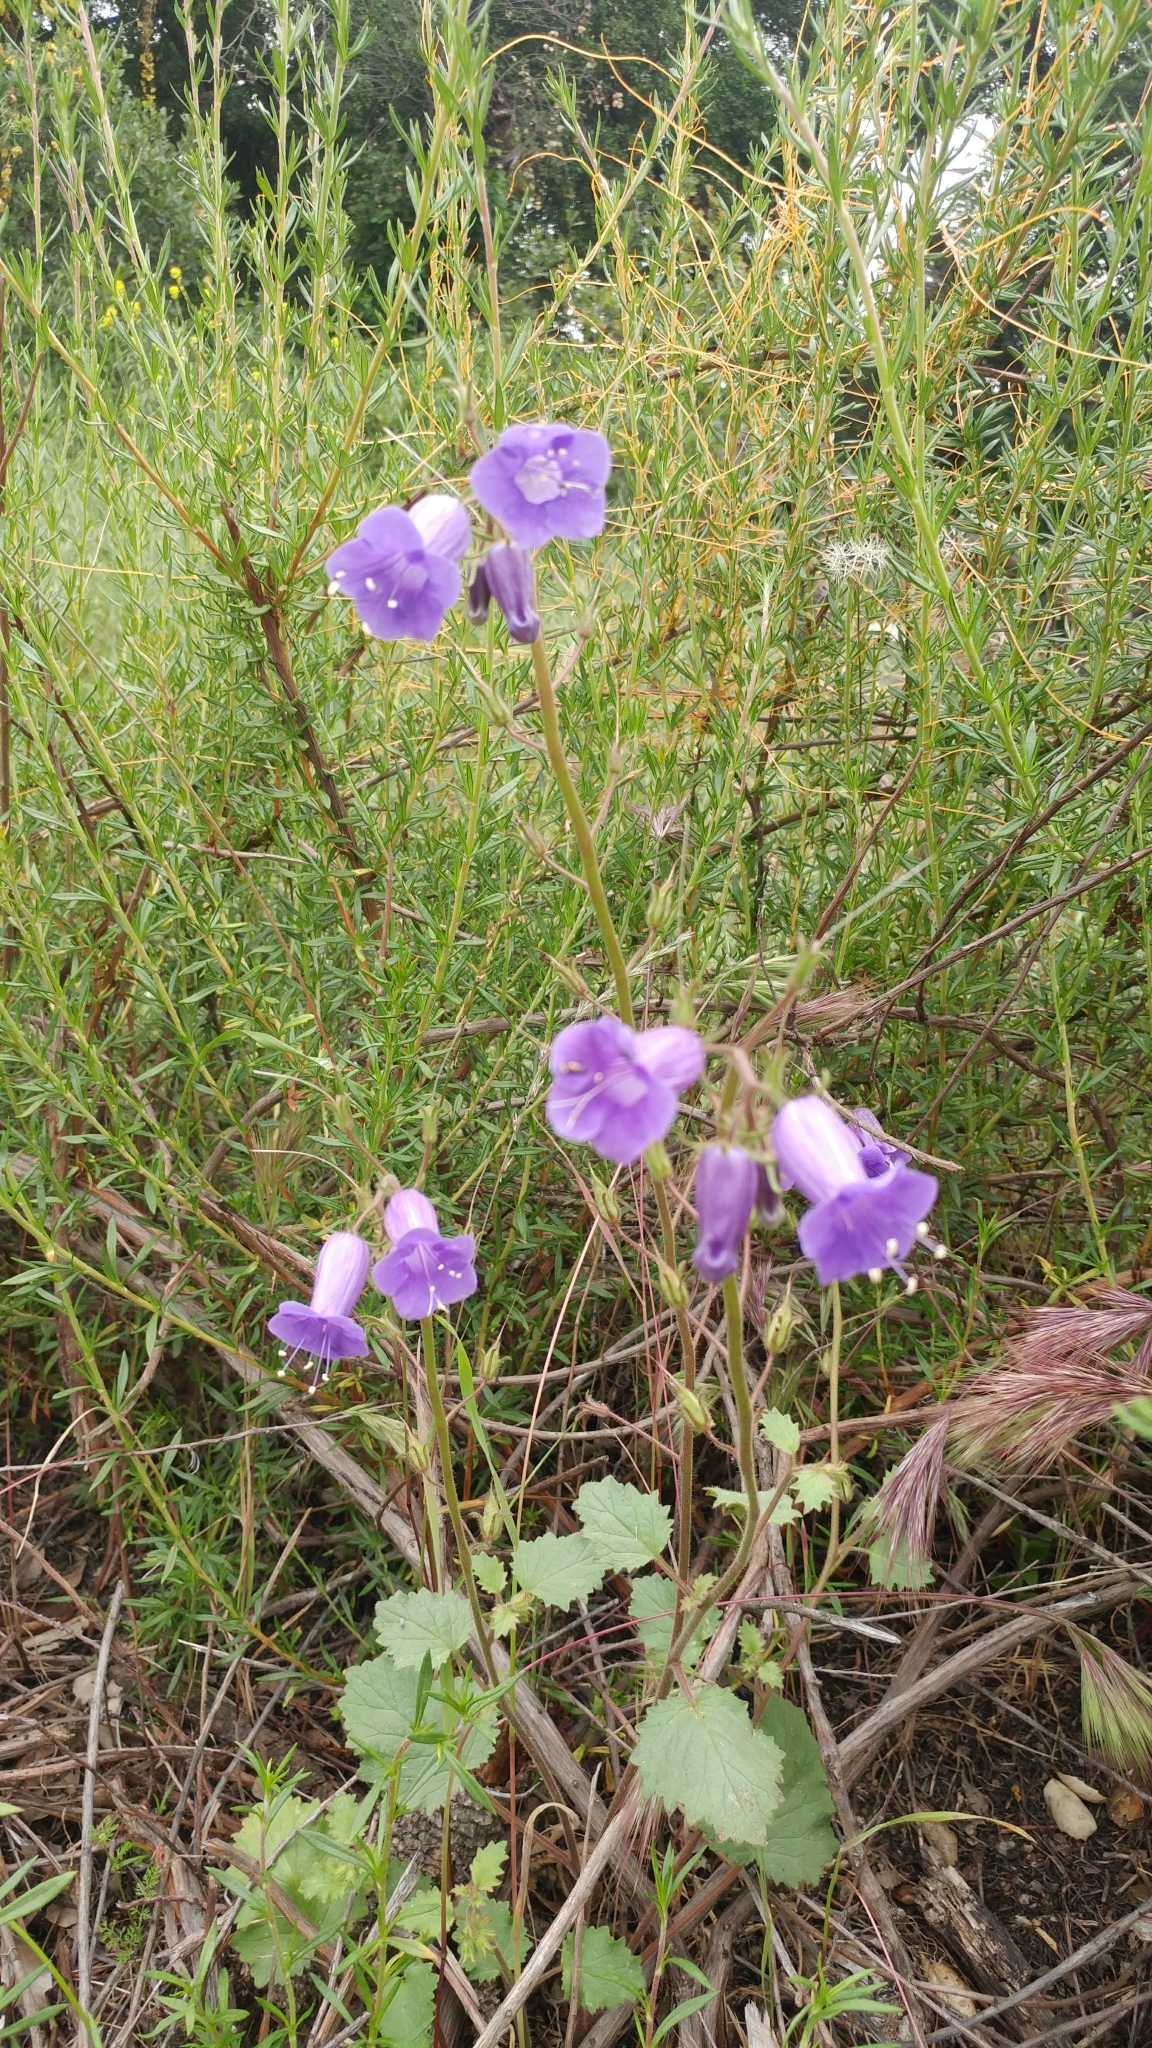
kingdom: Plantae
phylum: Tracheophyta
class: Magnoliopsida
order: Boraginales
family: Hydrophyllaceae
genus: Phacelia
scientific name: Phacelia minor
